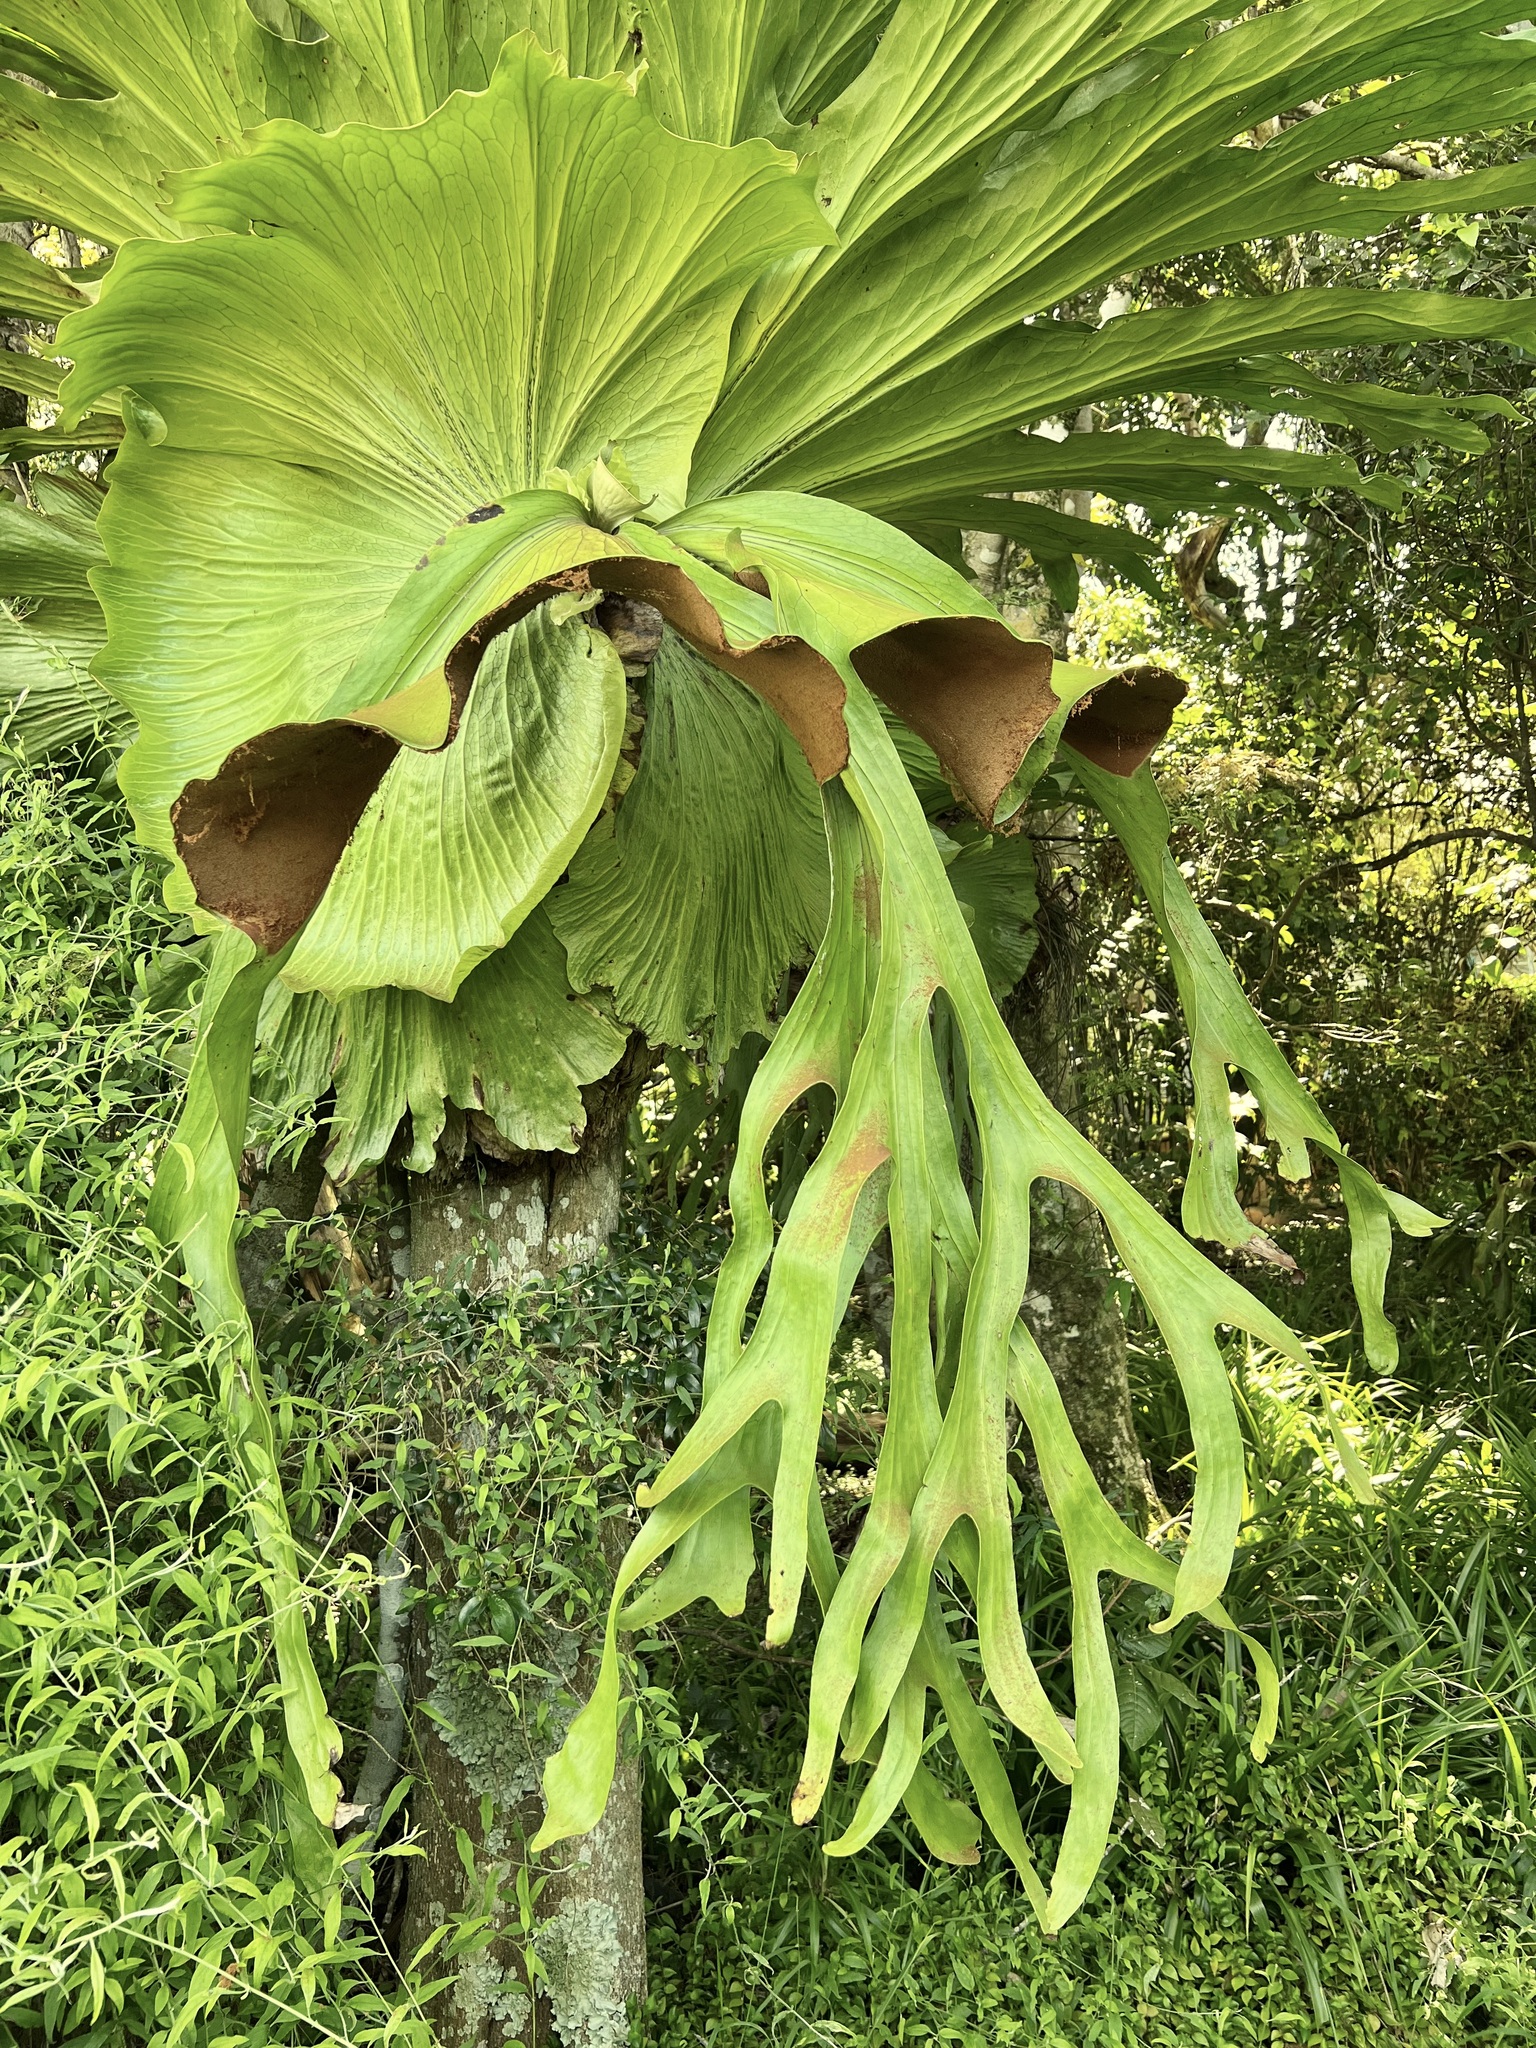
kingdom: Plantae
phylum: Tracheophyta
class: Polypodiopsida
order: Polypodiales
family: Polypodiaceae
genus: Platycerium
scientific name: Platycerium superbum
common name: Staghorn fern
